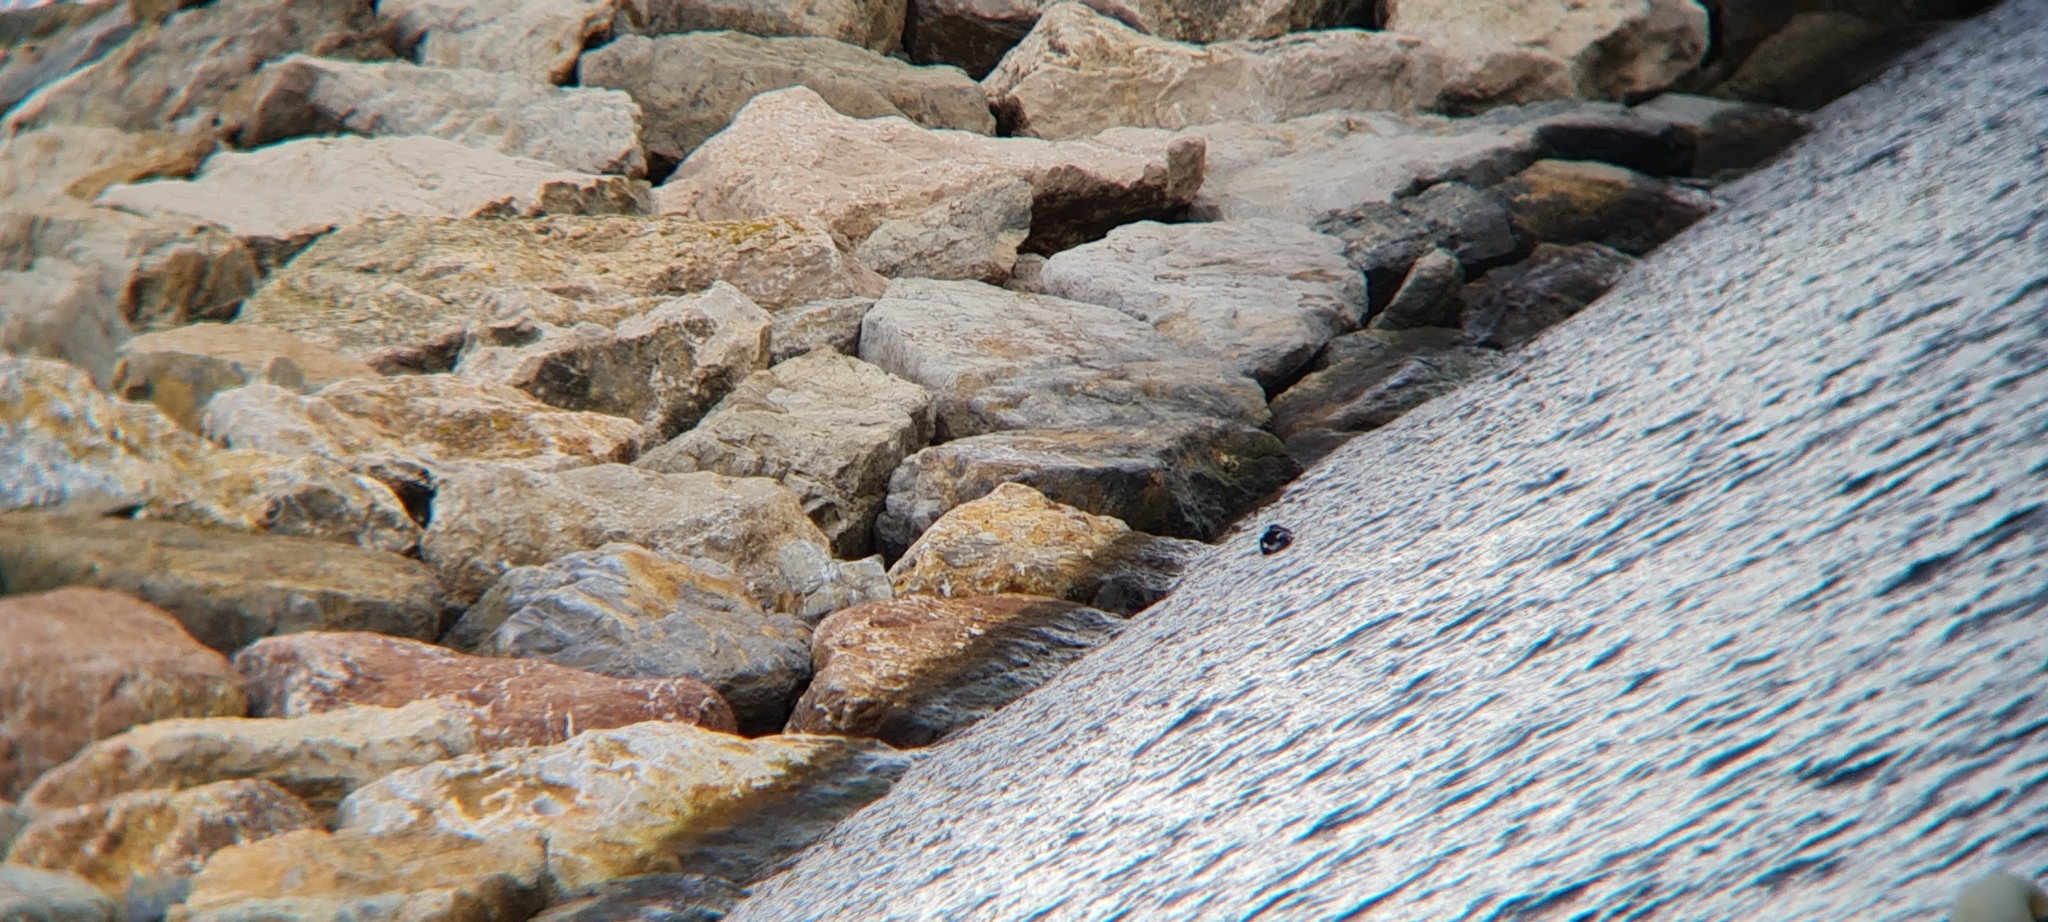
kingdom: Animalia
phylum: Chordata
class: Aves
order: Charadriiformes
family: Alcidae
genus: Alca
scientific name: Alca torda
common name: Razorbill
